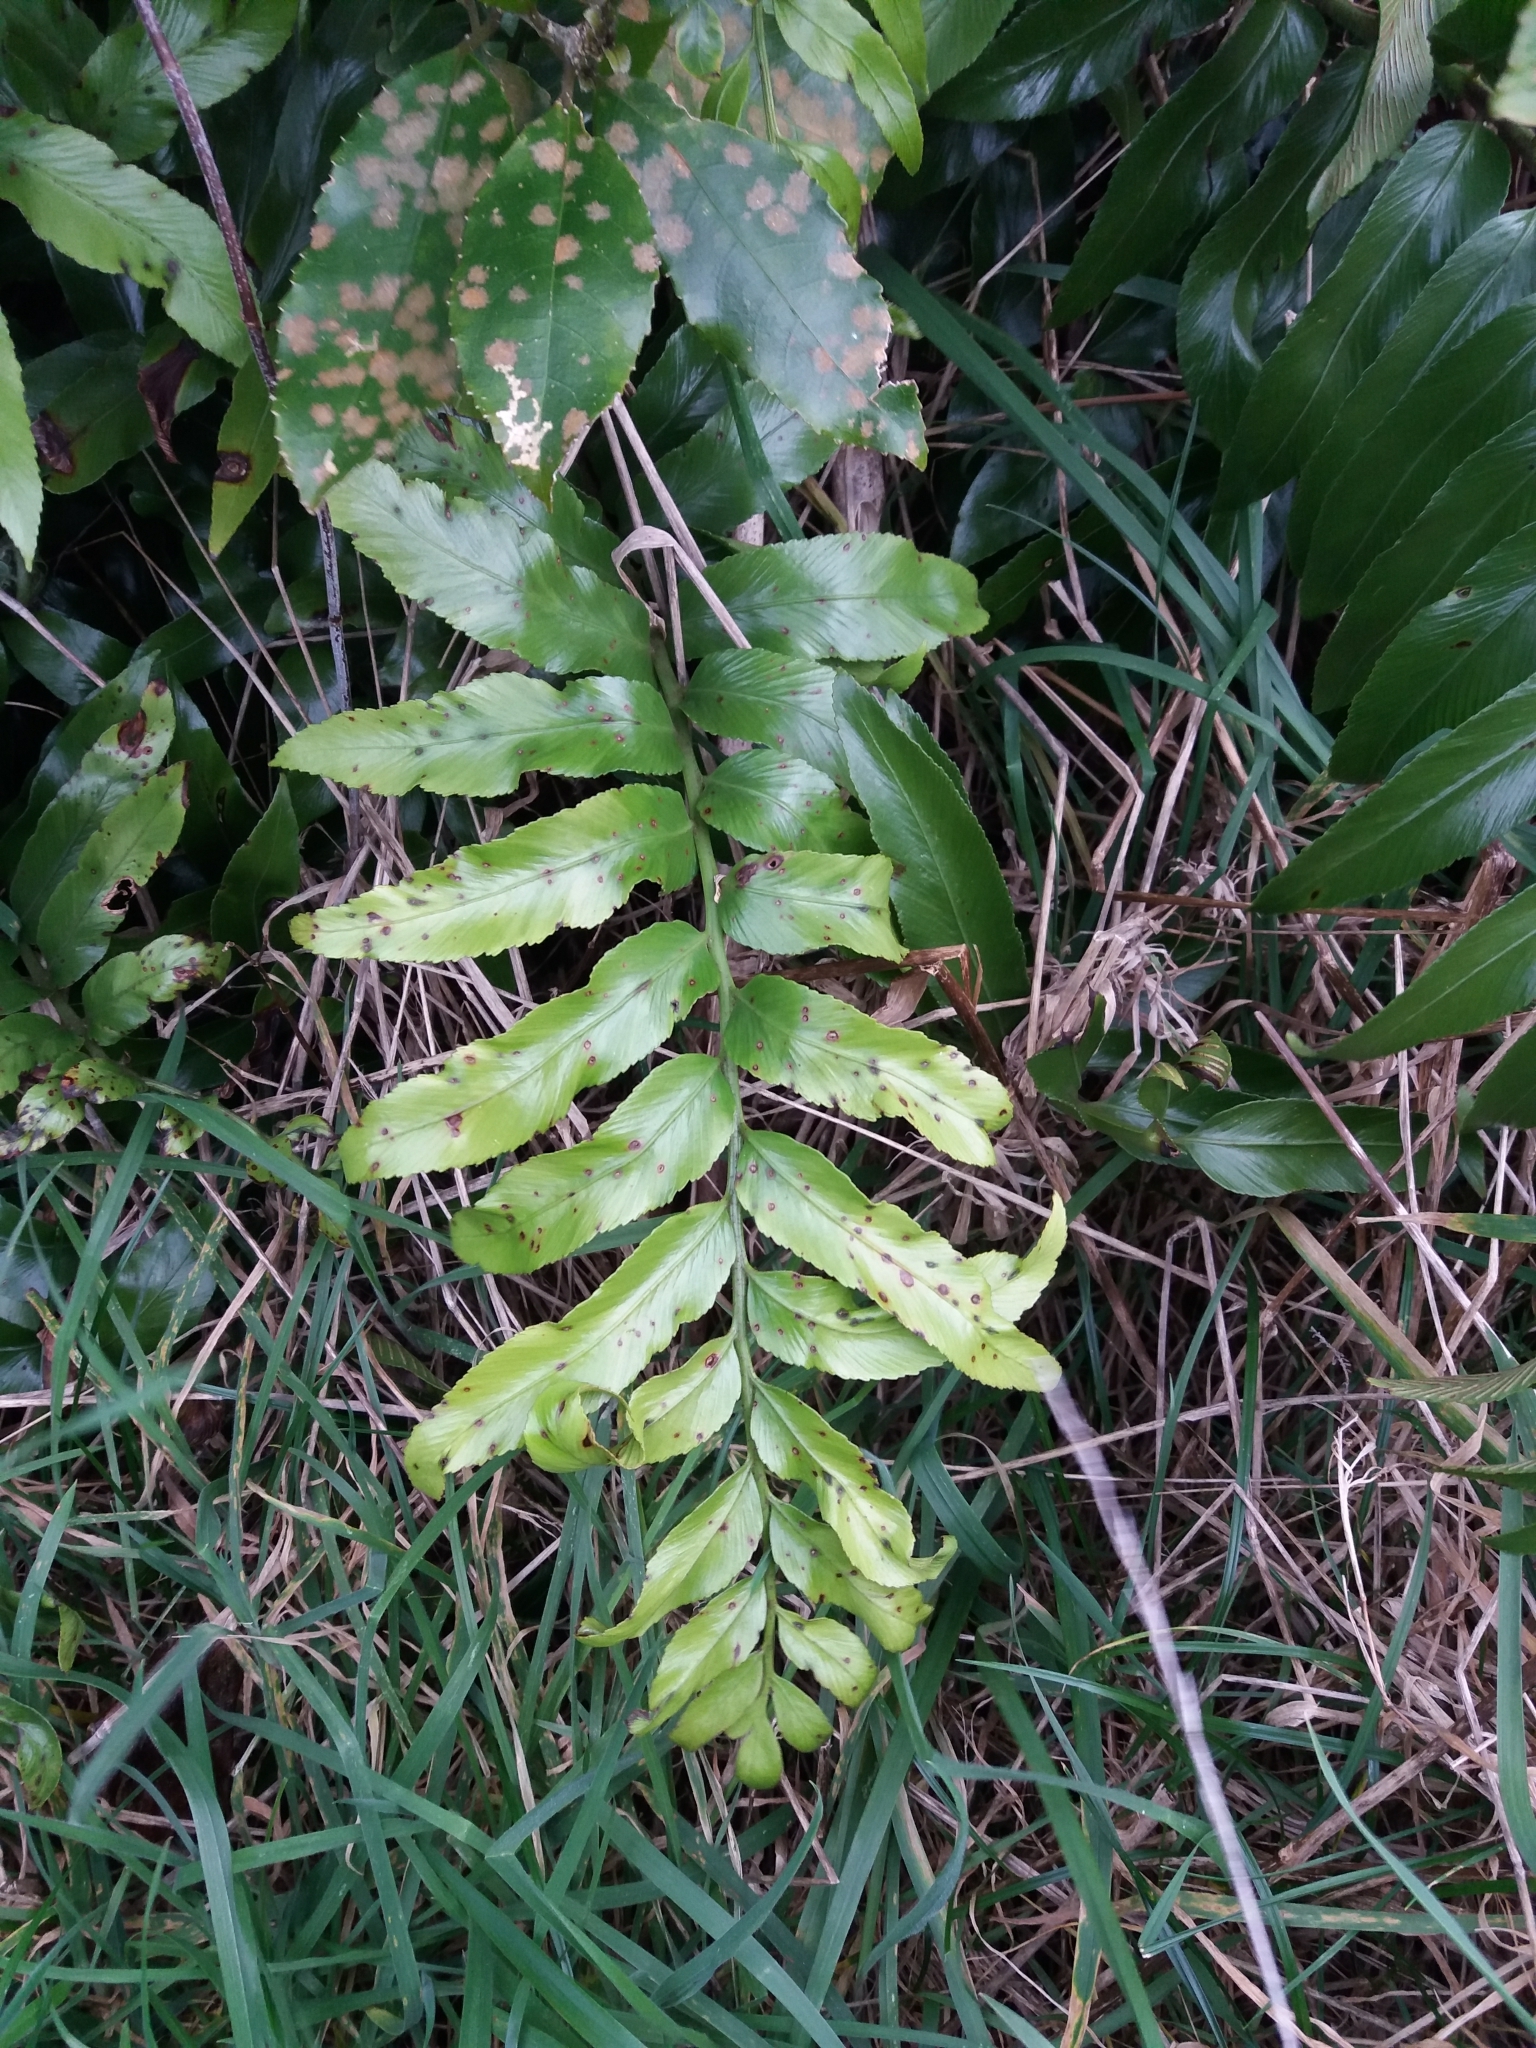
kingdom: Plantae
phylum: Tracheophyta
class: Polypodiopsida
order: Polypodiales
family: Aspleniaceae
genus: Asplenium
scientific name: Asplenium oblongifolium
